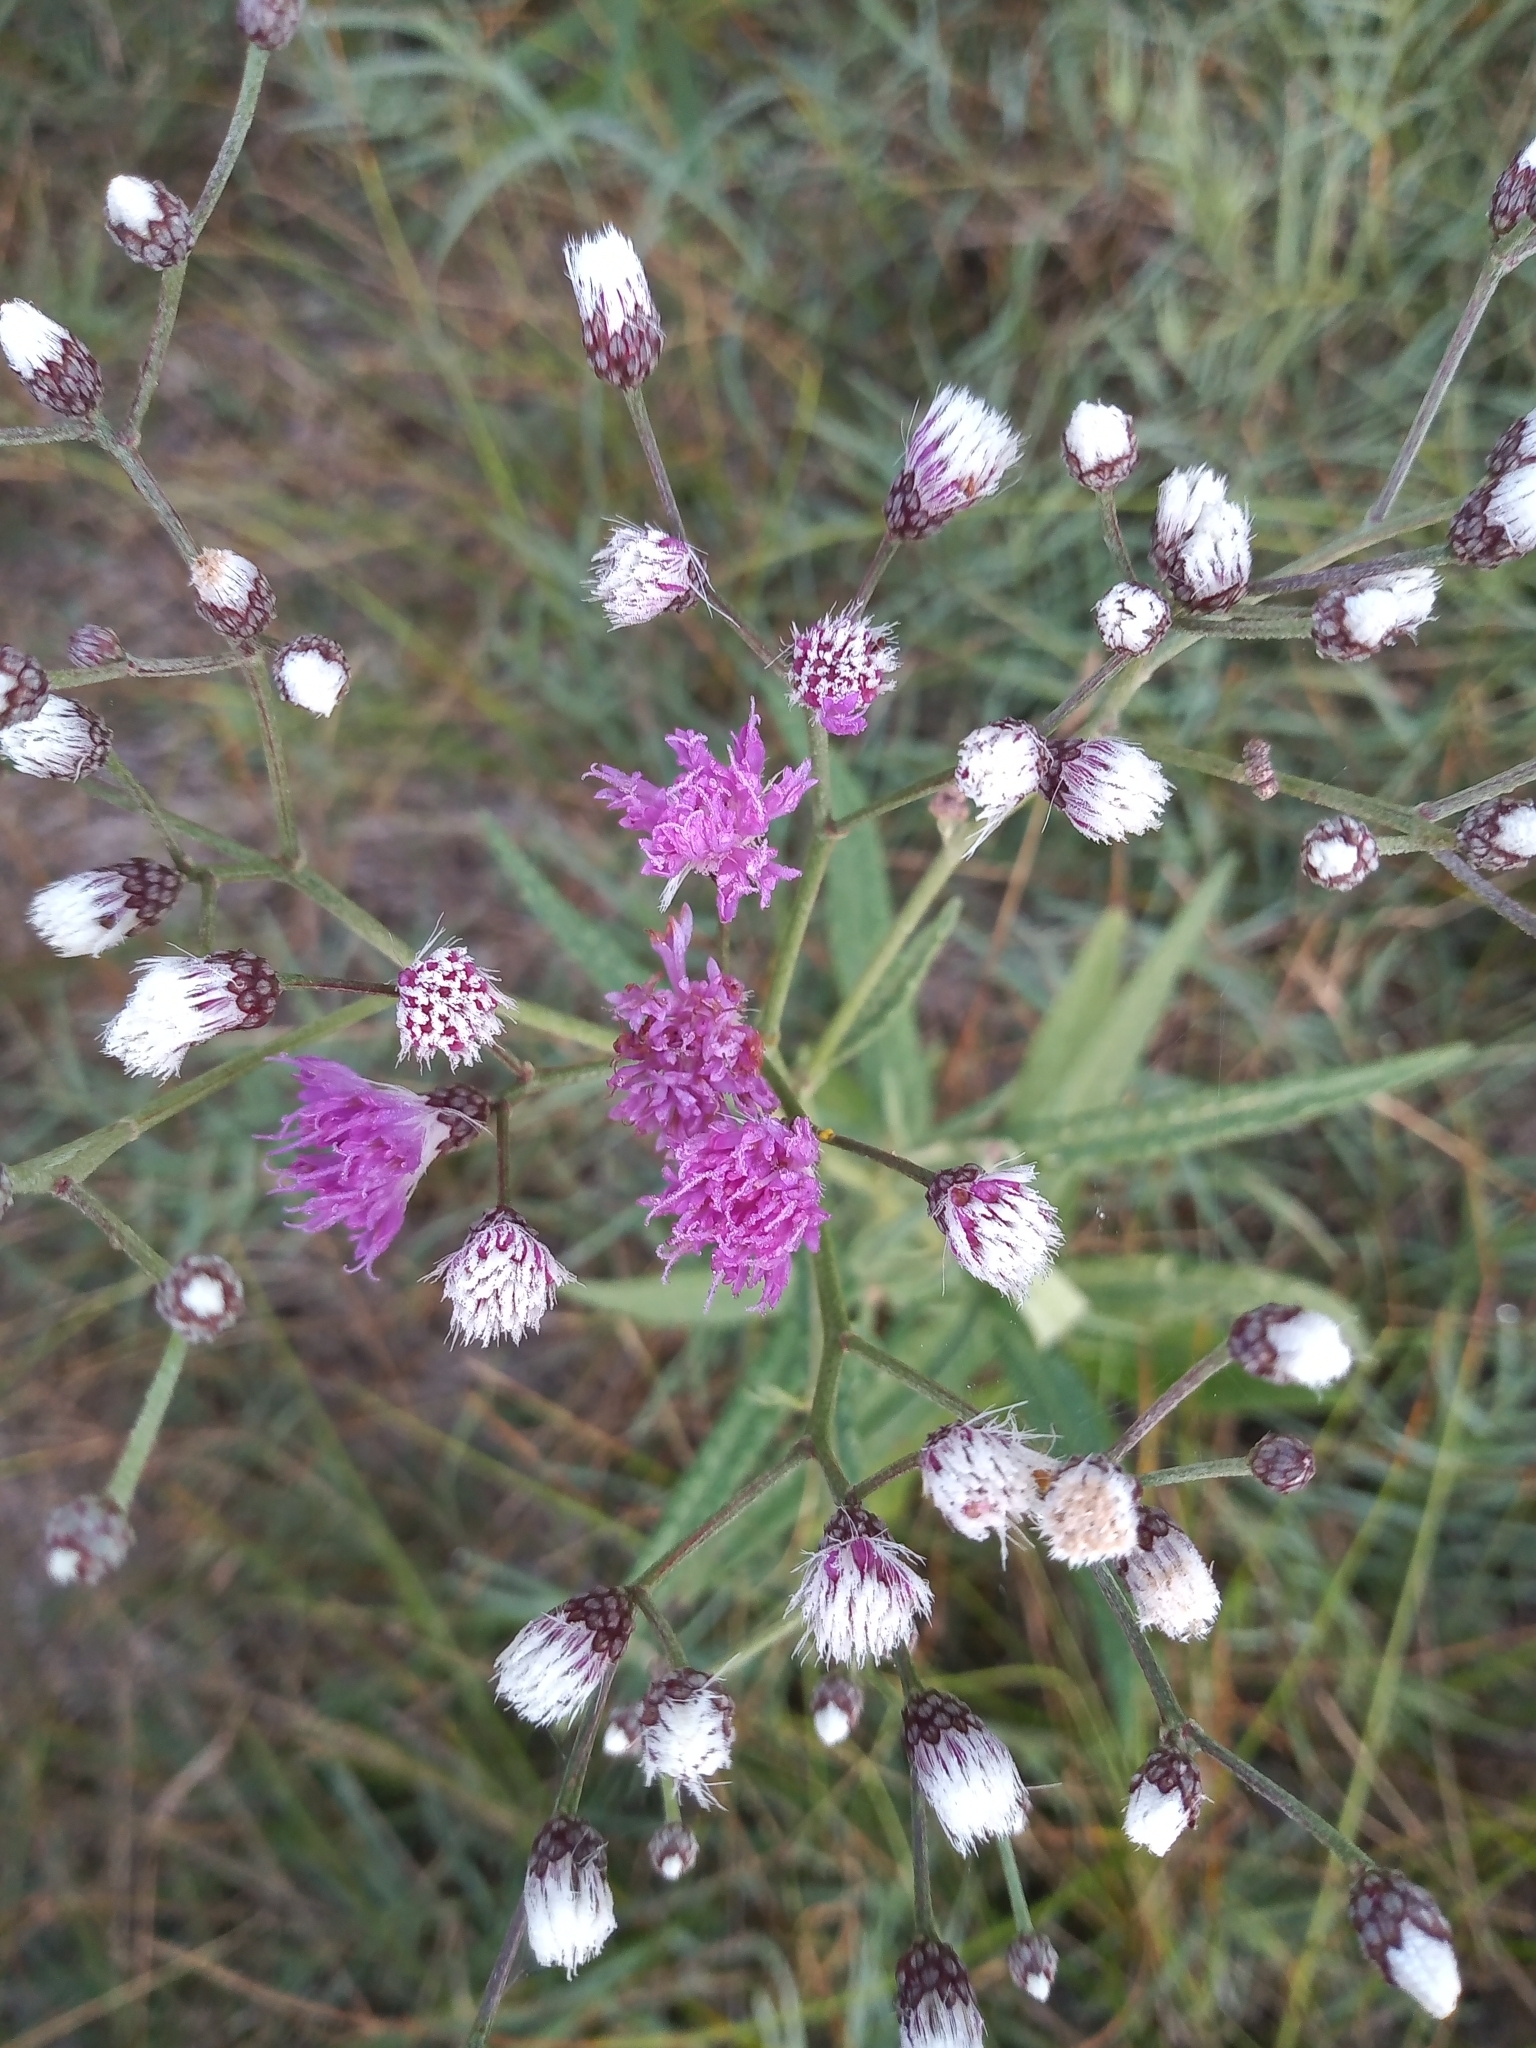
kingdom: Plantae
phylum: Tracheophyta
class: Magnoliopsida
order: Asterales
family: Asteraceae
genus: Vernonia
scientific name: Vernonia incana
